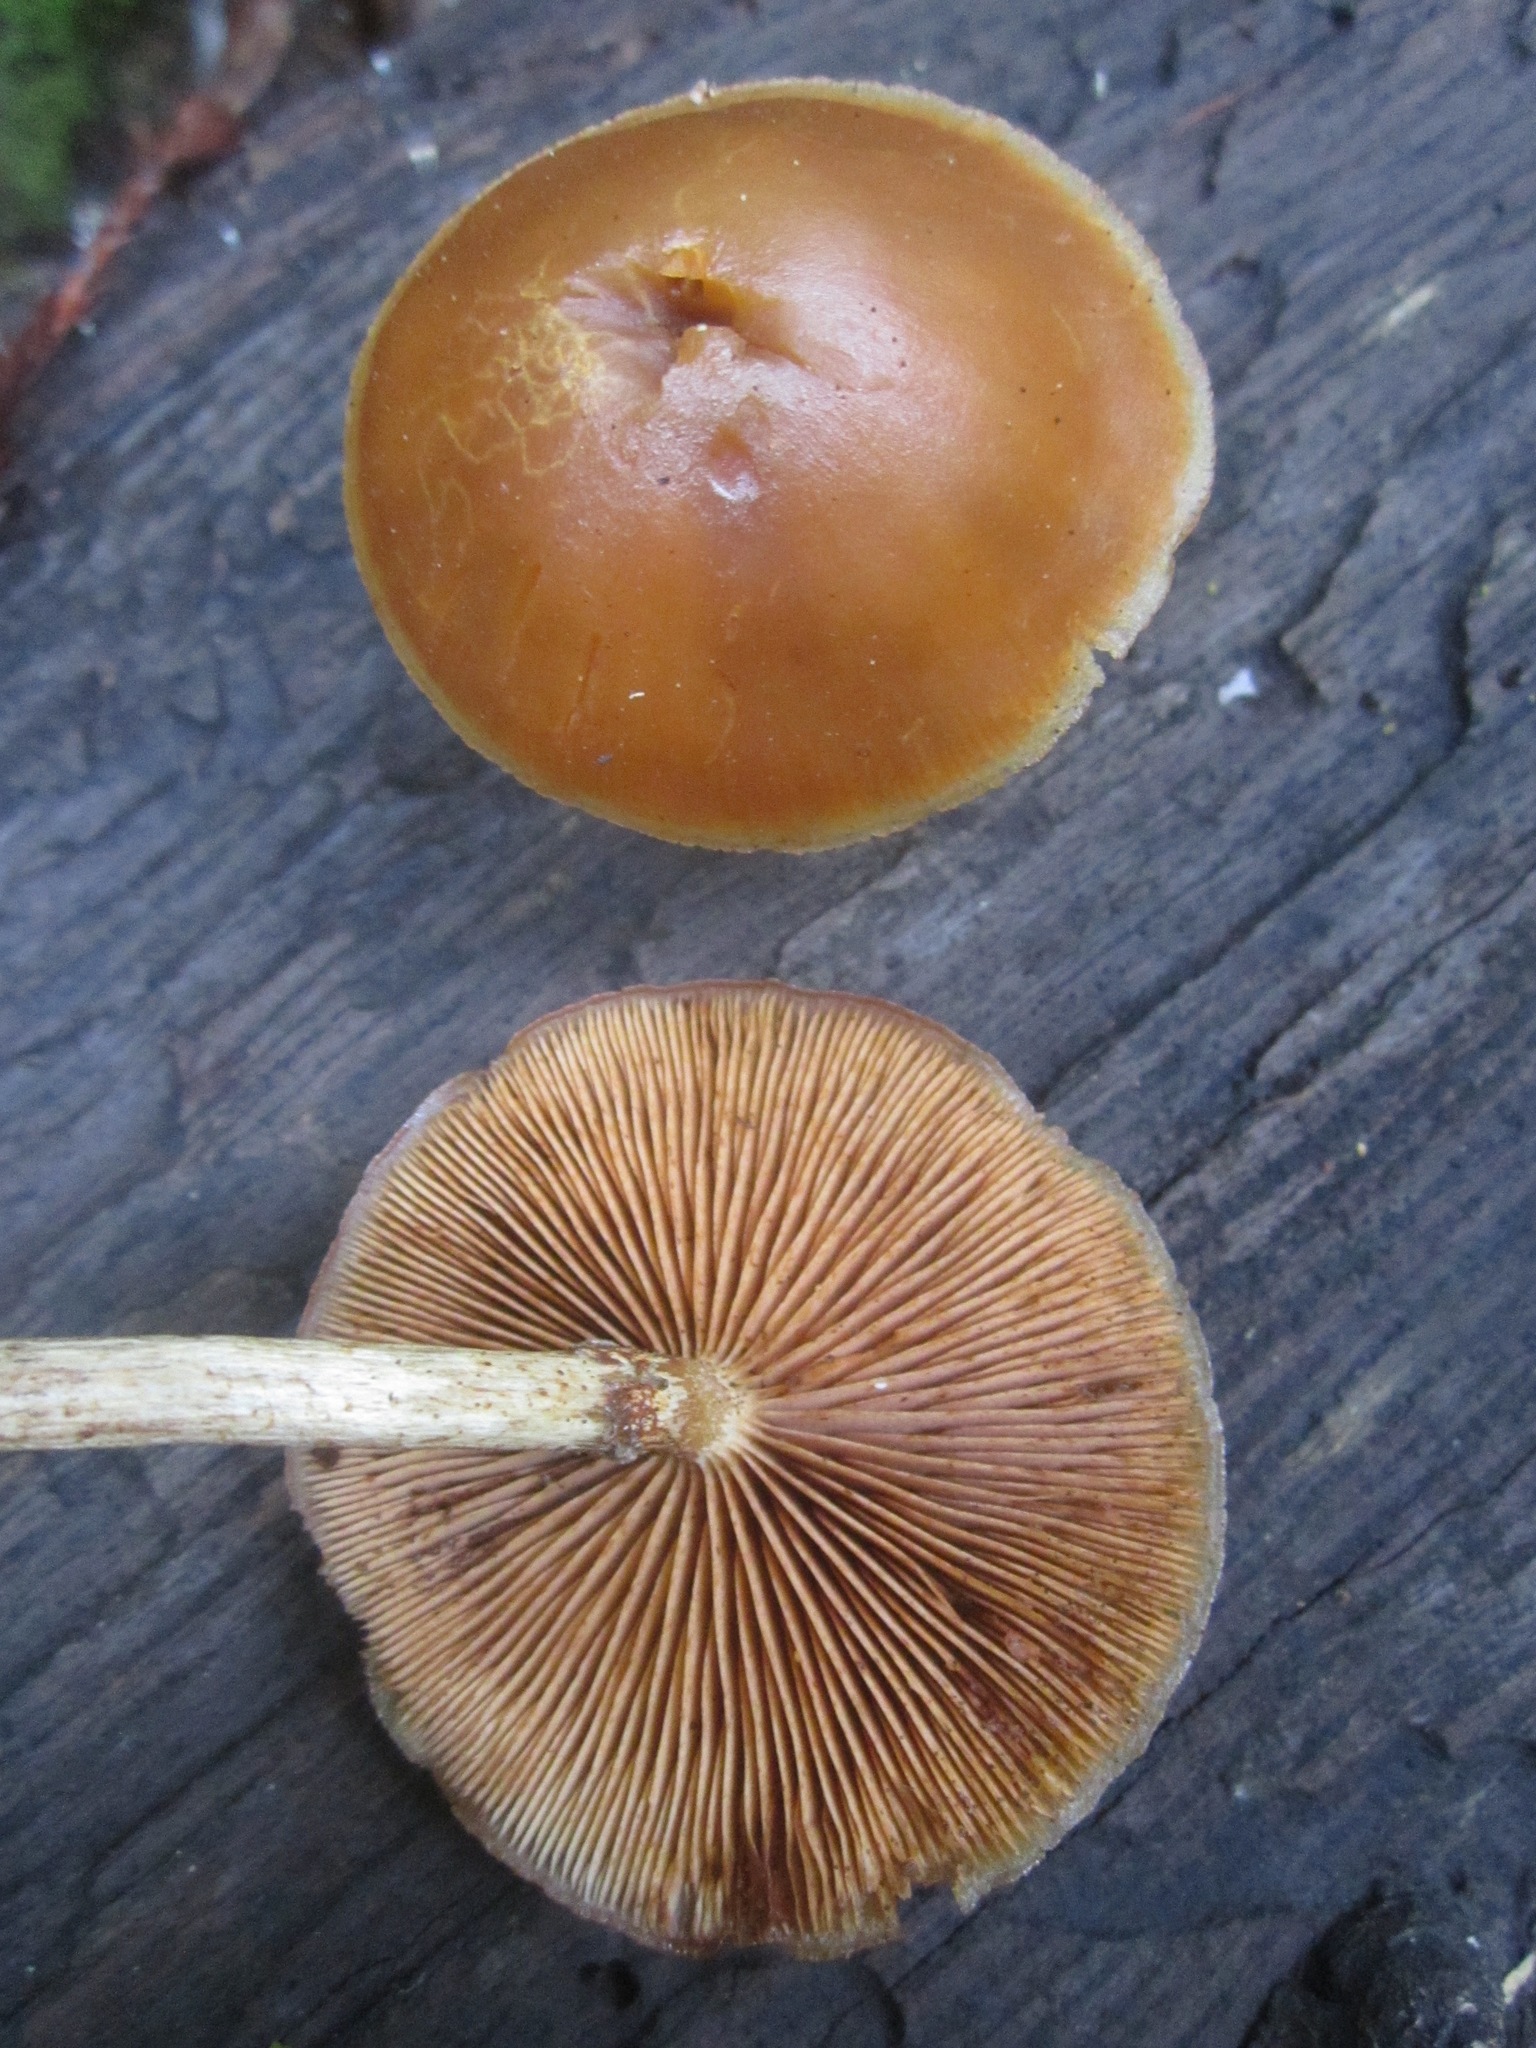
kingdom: Fungi
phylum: Basidiomycota
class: Agaricomycetes
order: Agaricales
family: Hymenogastraceae
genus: Galerina
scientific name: Galerina marginata
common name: Funeral bell
